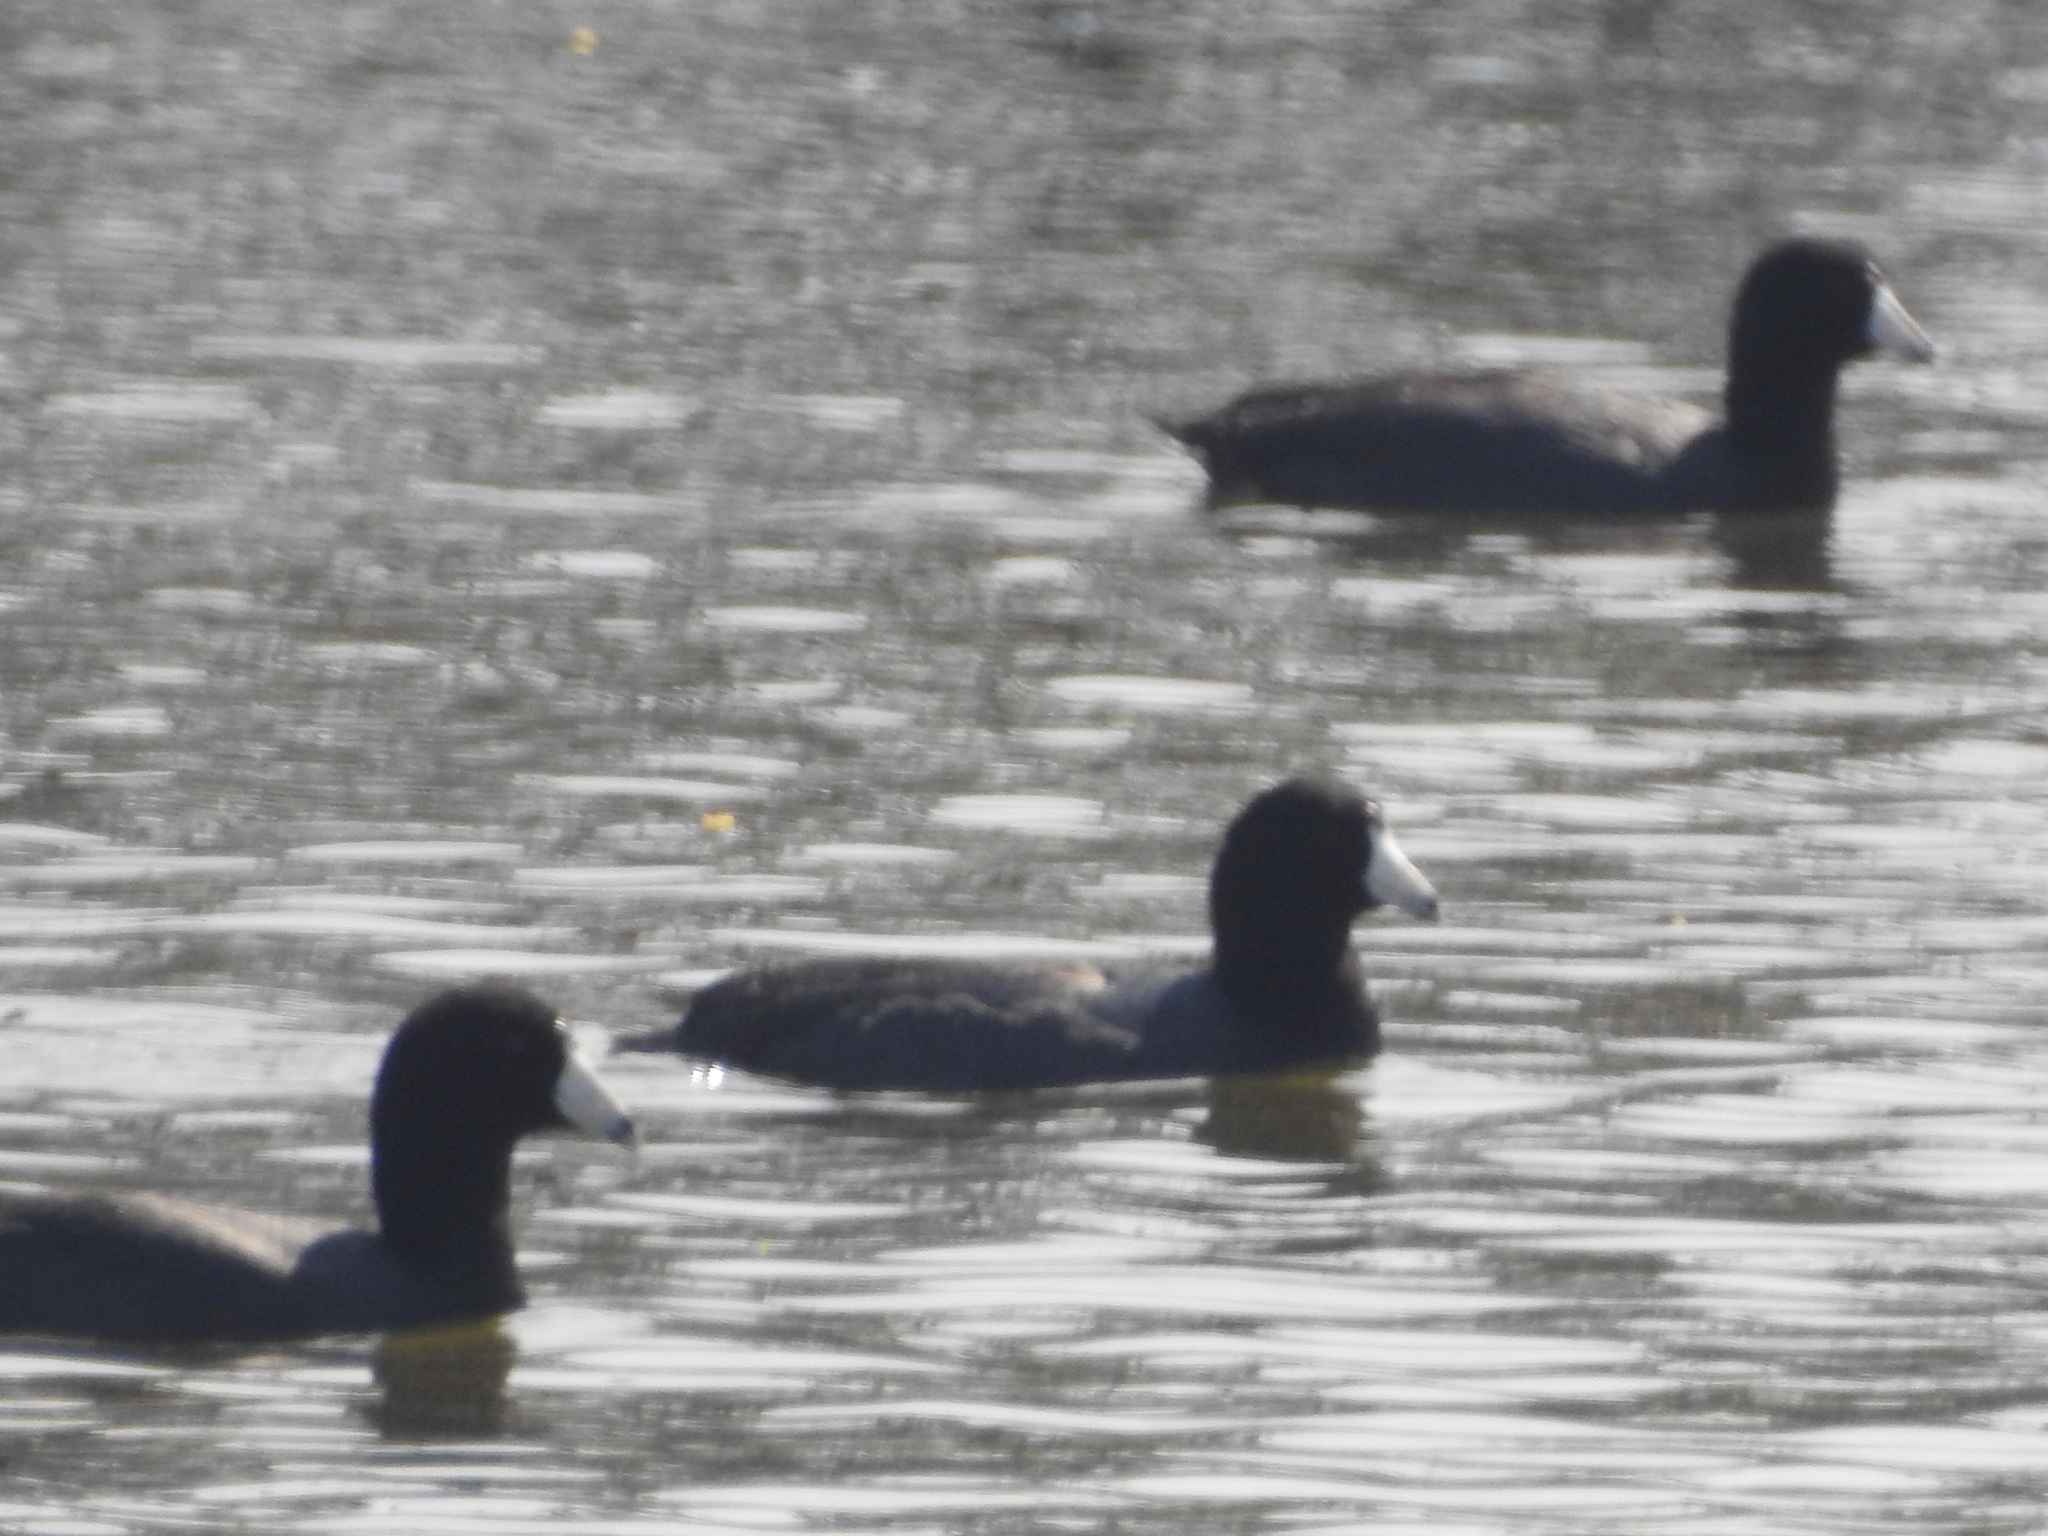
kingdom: Animalia
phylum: Chordata
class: Aves
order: Gruiformes
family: Rallidae
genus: Fulica
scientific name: Fulica americana
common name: American coot
